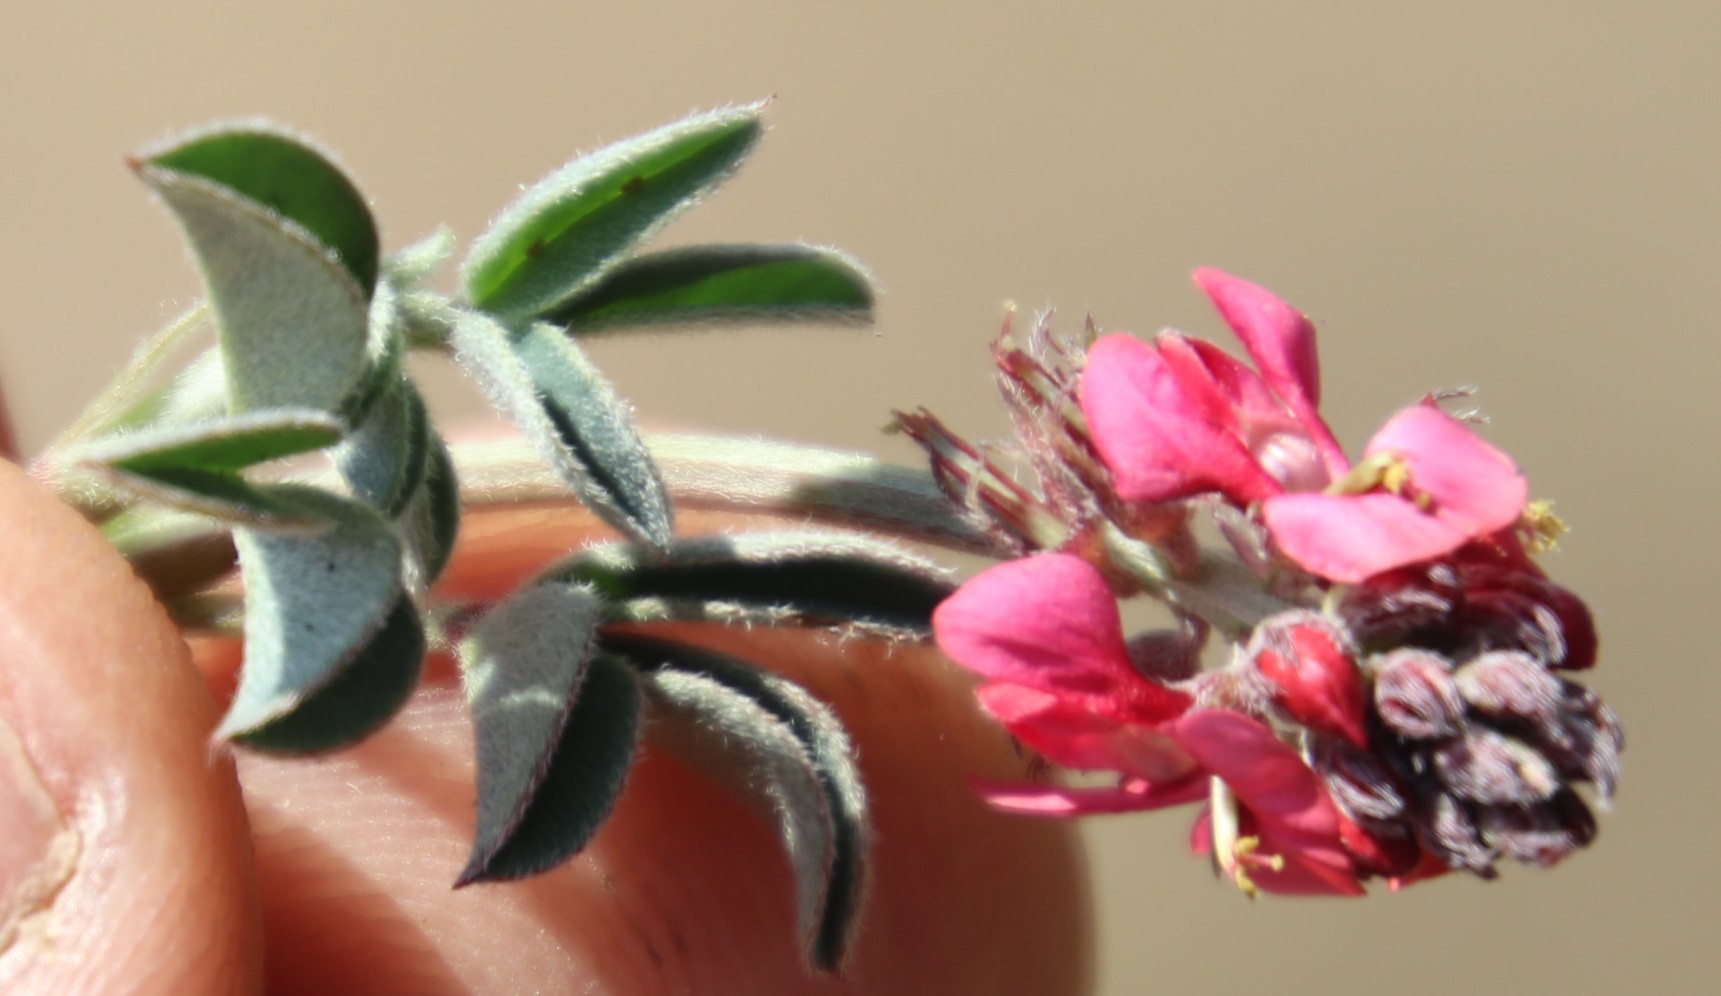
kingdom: Plantae
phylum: Tracheophyta
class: Magnoliopsida
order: Fabales
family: Fabaceae
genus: Indigofera
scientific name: Indigofera
